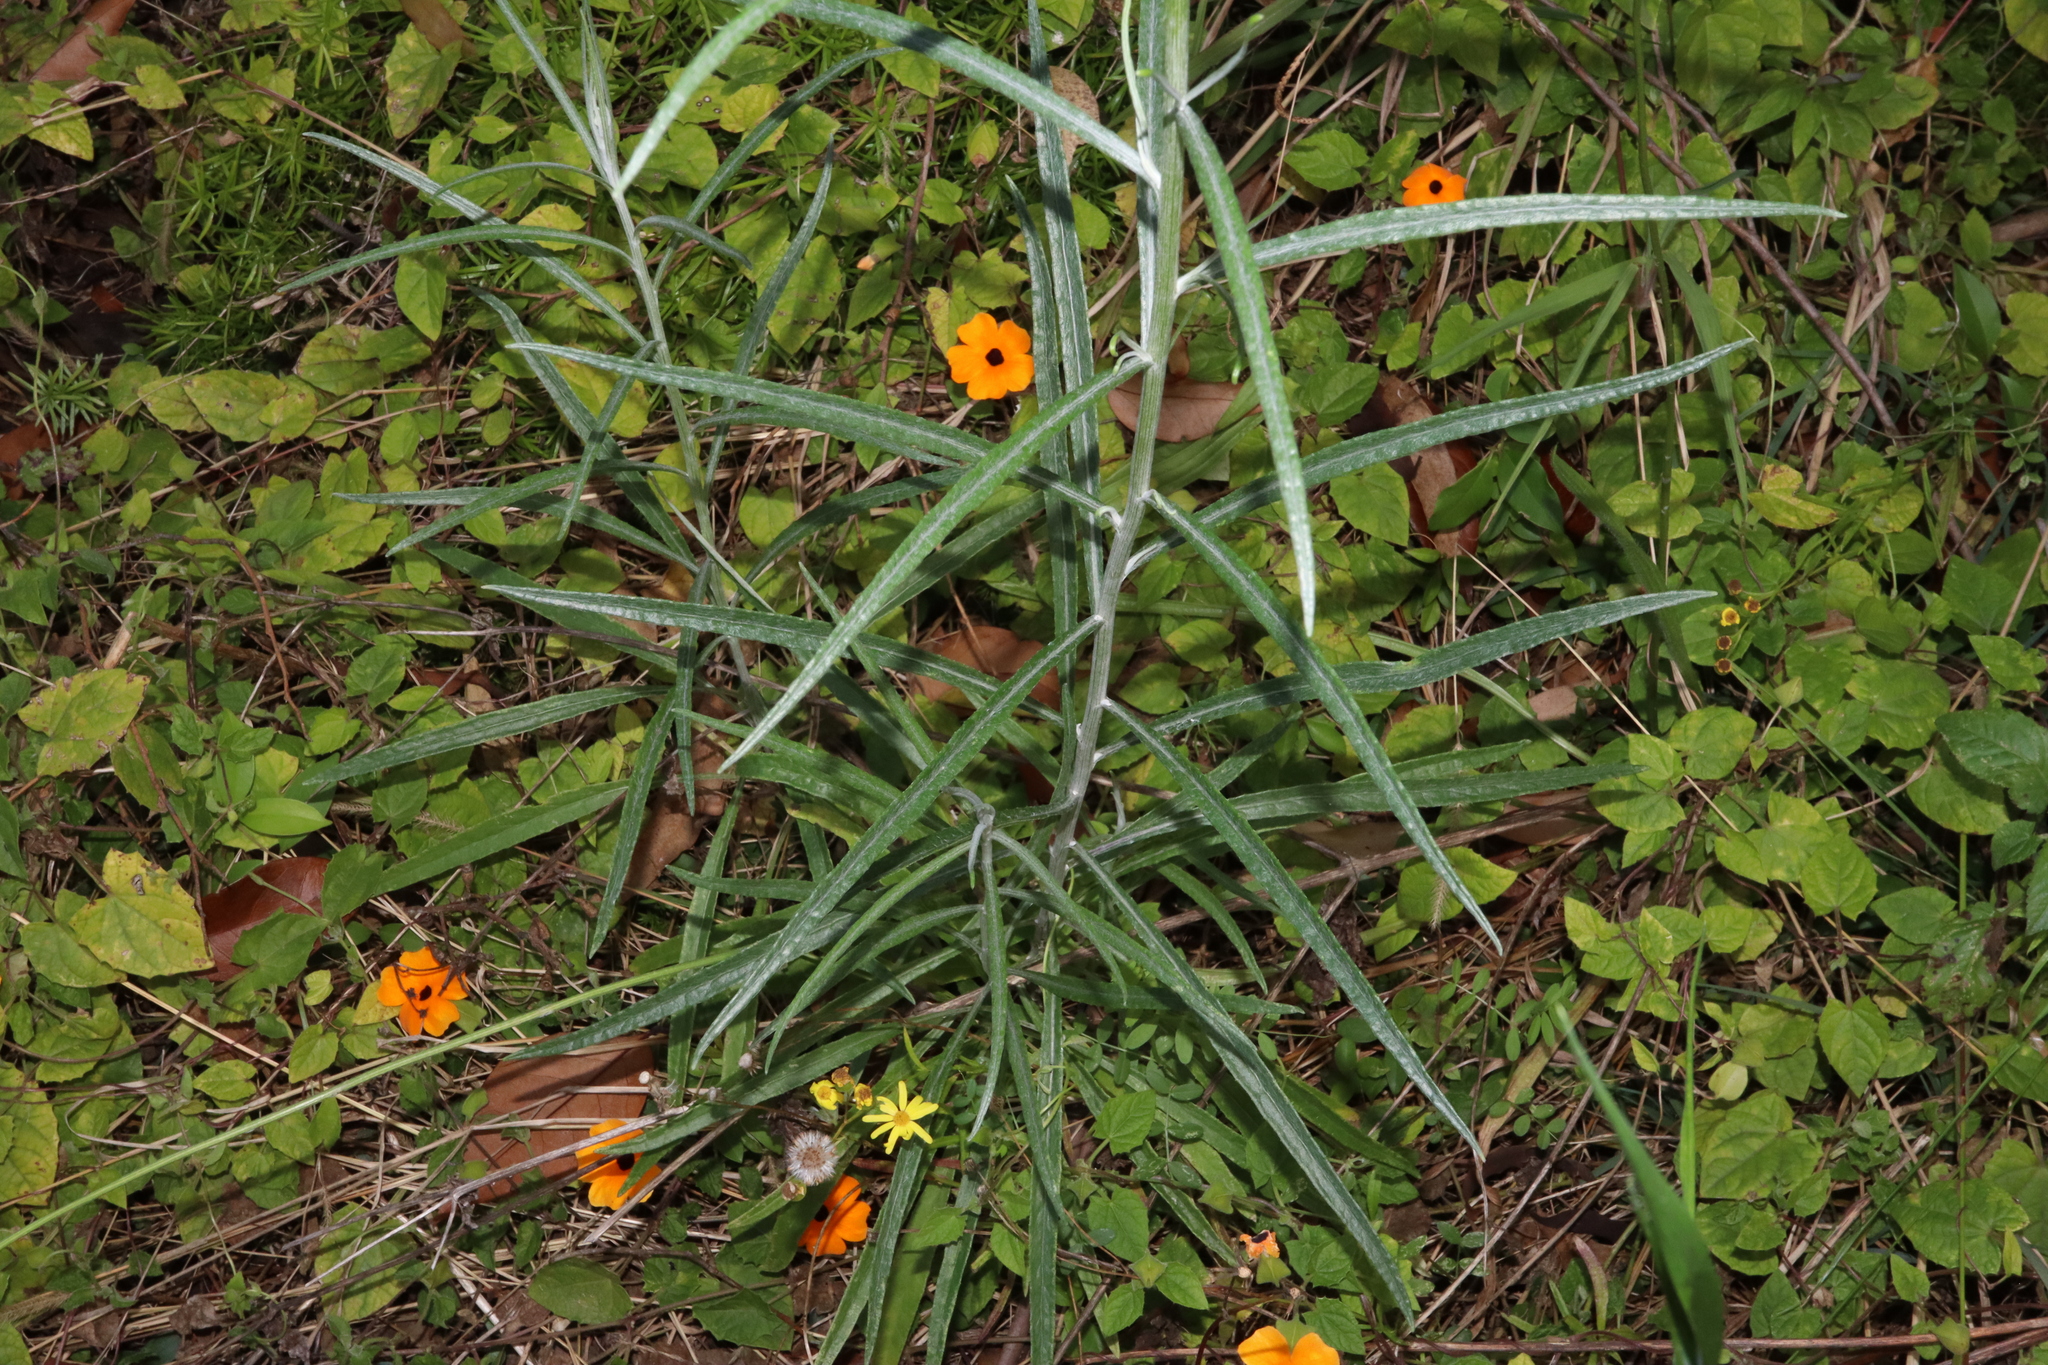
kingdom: Plantae
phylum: Tracheophyta
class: Magnoliopsida
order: Asterales
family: Asteraceae
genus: Senecio
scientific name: Senecio quadridentatus
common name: Cotton fireweed
